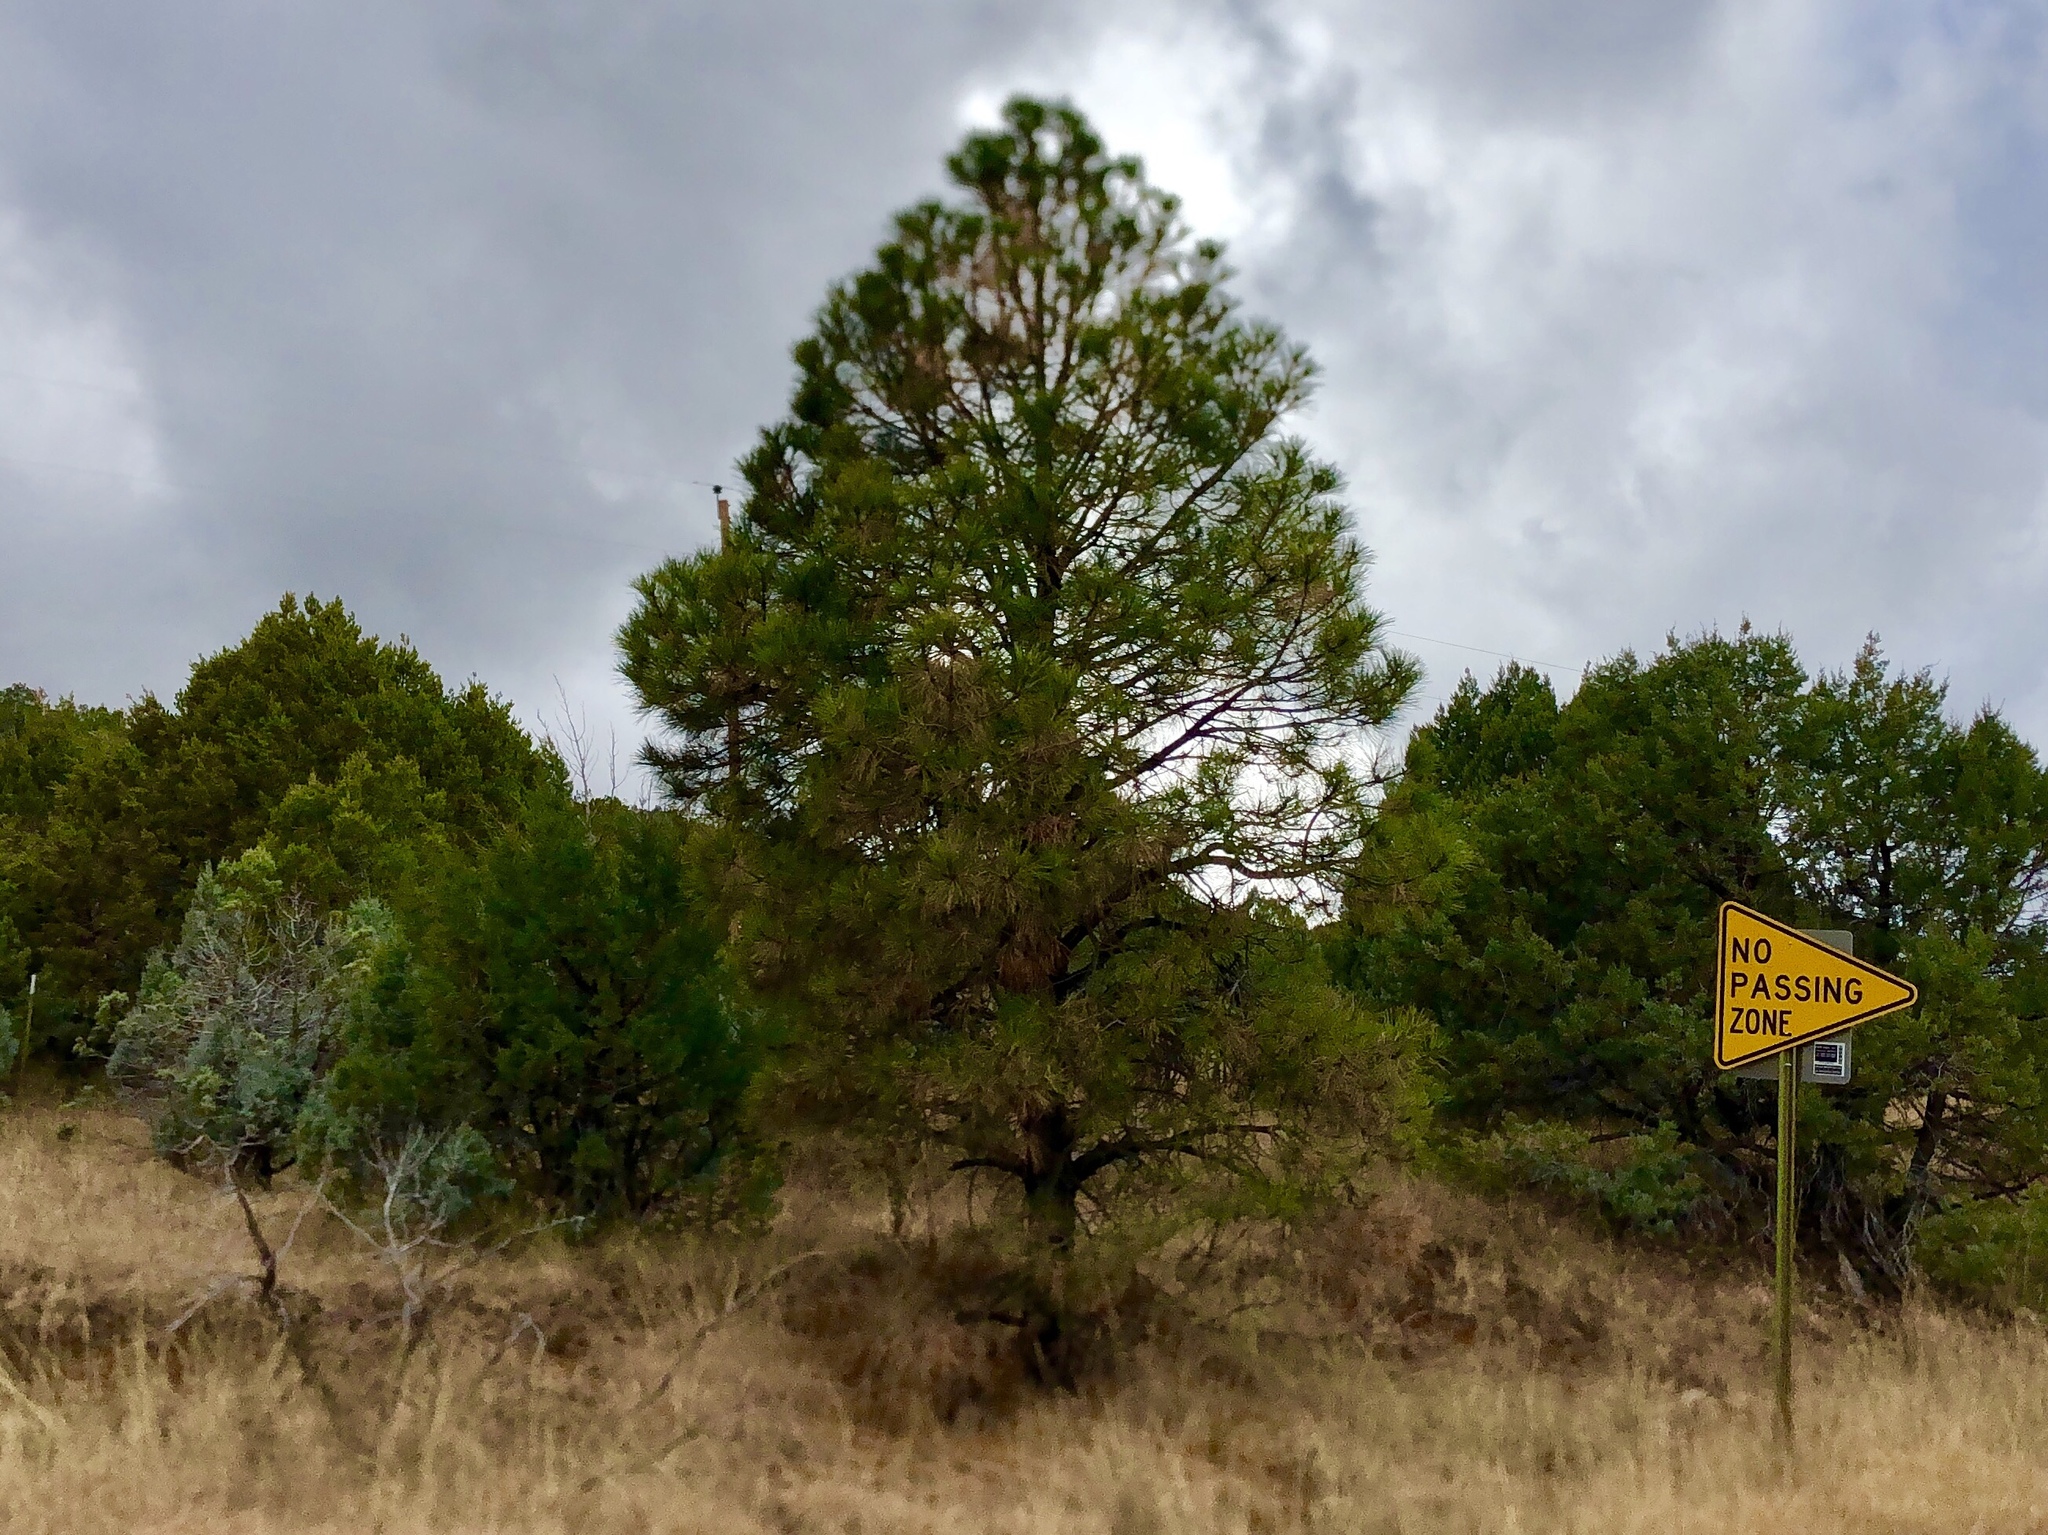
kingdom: Plantae
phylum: Tracheophyta
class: Pinopsida
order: Pinales
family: Pinaceae
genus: Pinus
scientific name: Pinus ponderosa
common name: Western yellow-pine
